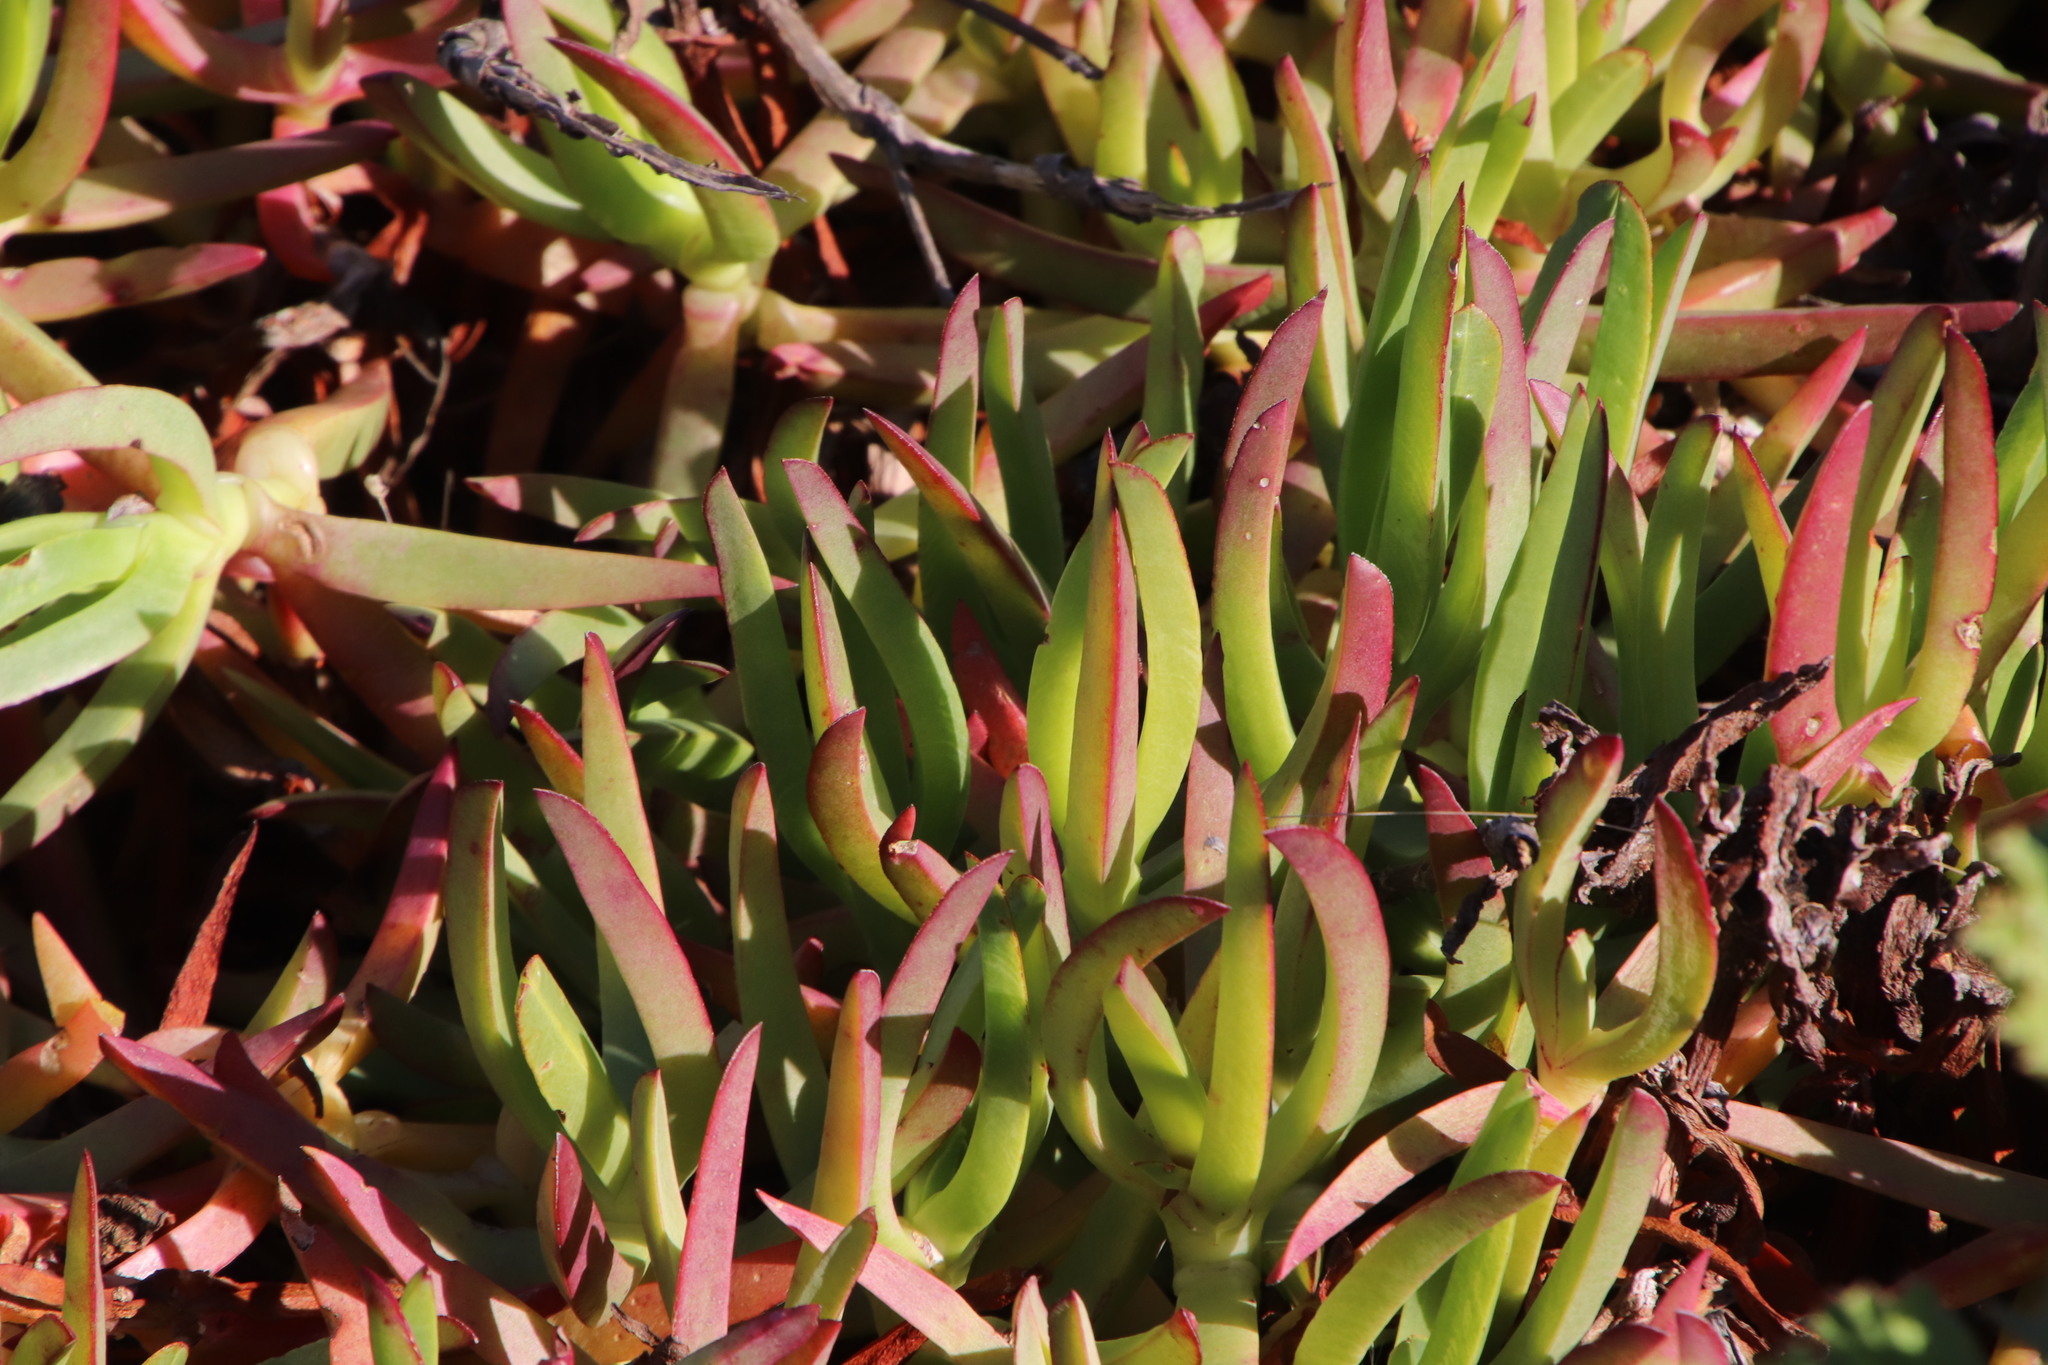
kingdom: Plantae
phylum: Tracheophyta
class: Magnoliopsida
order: Caryophyllales
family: Aizoaceae
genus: Carpobrotus
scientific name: Carpobrotus edulis
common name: Hottentot-fig
